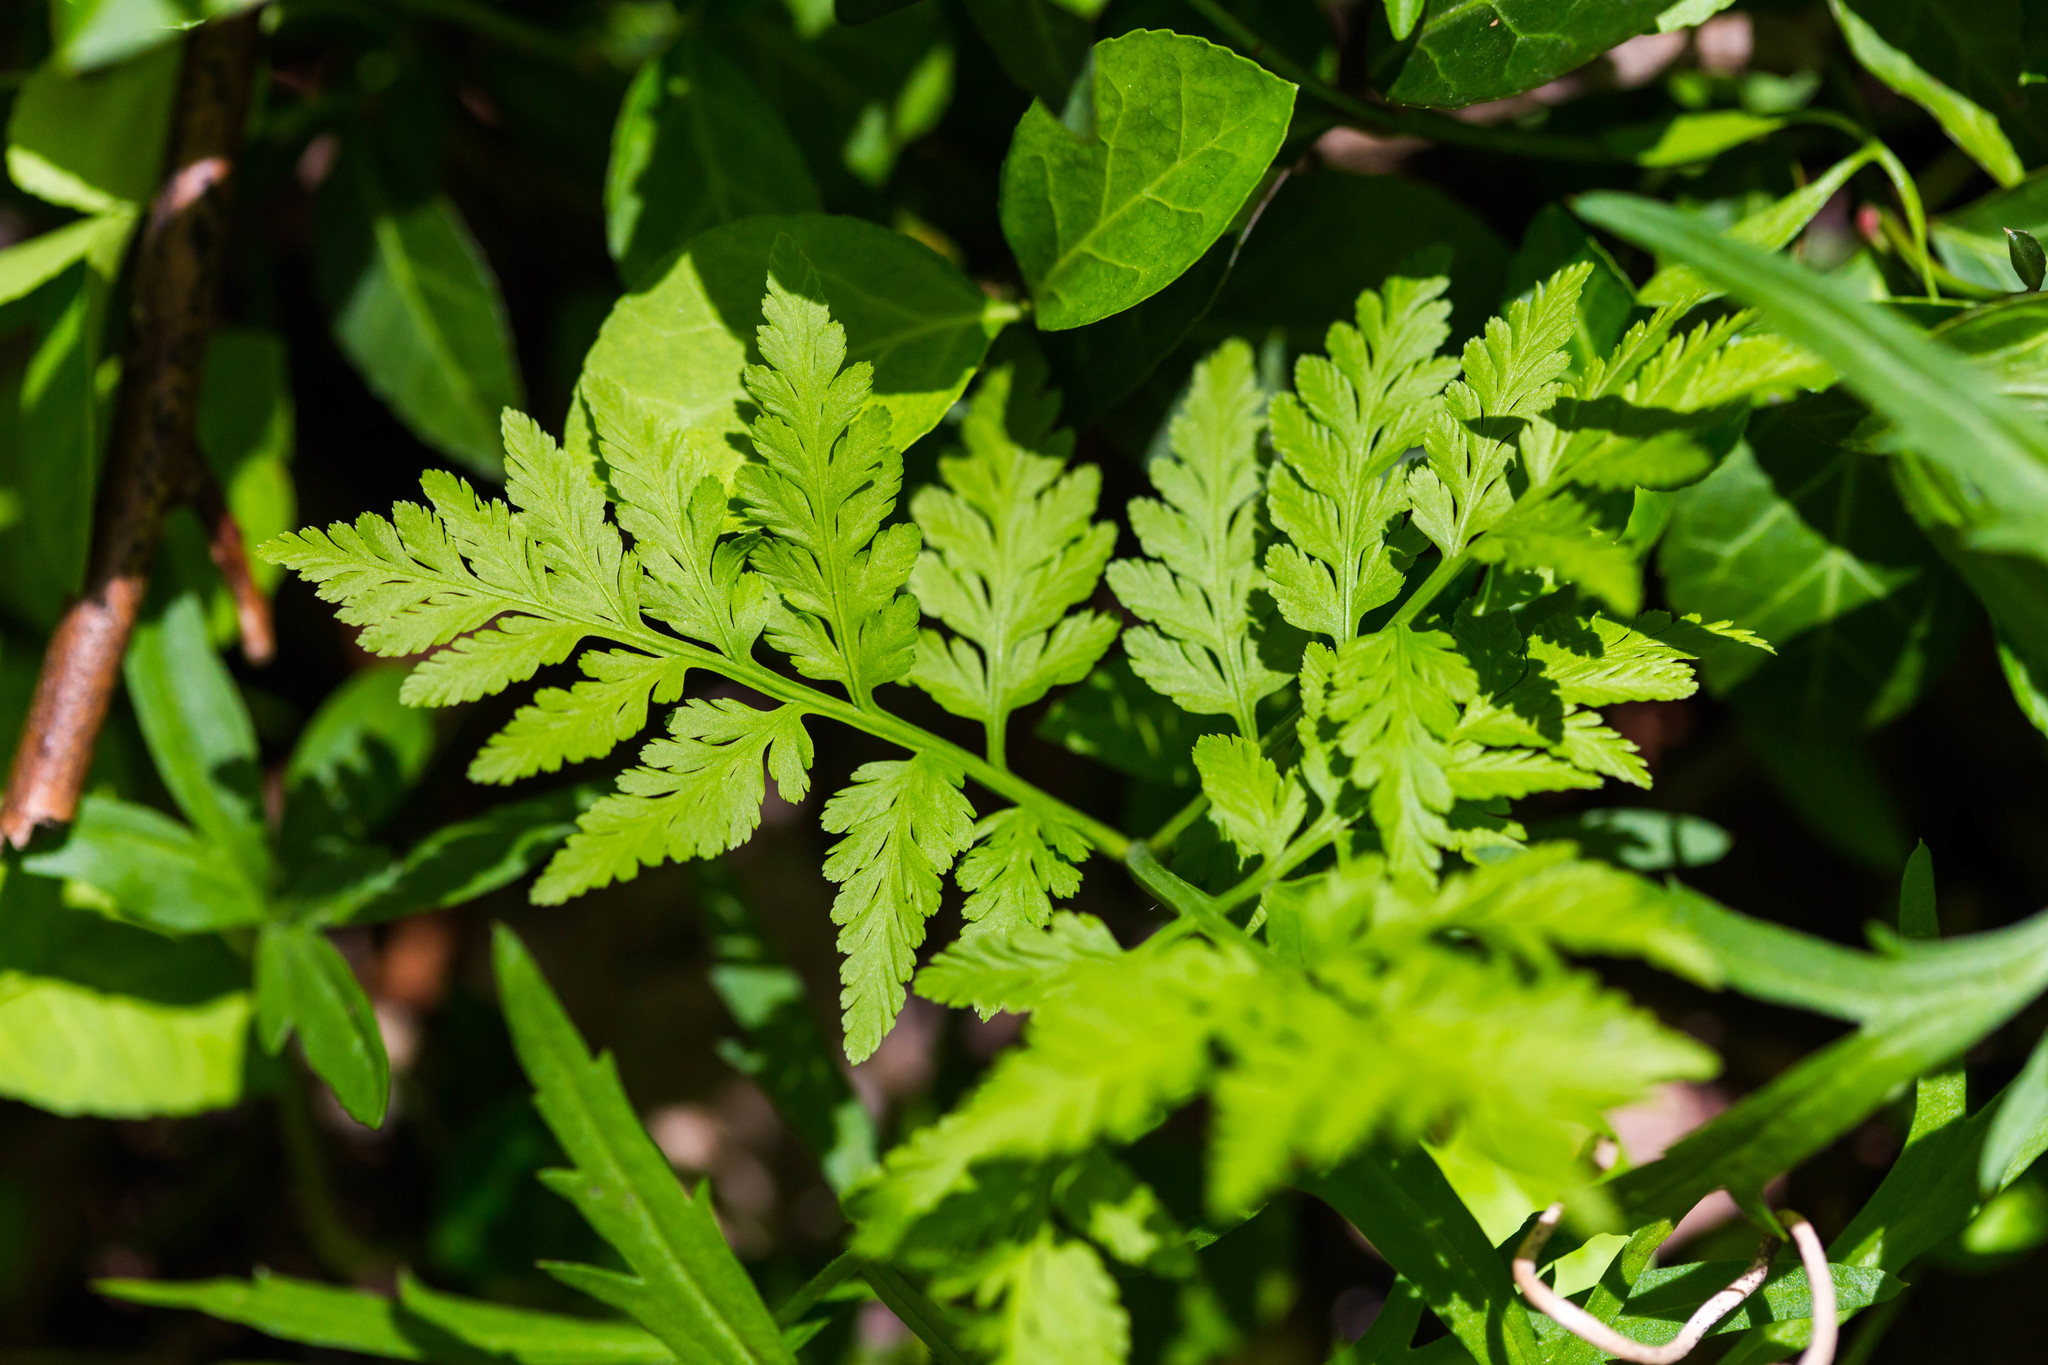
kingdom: Plantae
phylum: Tracheophyta
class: Polypodiopsida
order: Ophioglossales
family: Ophioglossaceae
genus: Botrypus
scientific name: Botrypus virginianus
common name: Common grapefern
